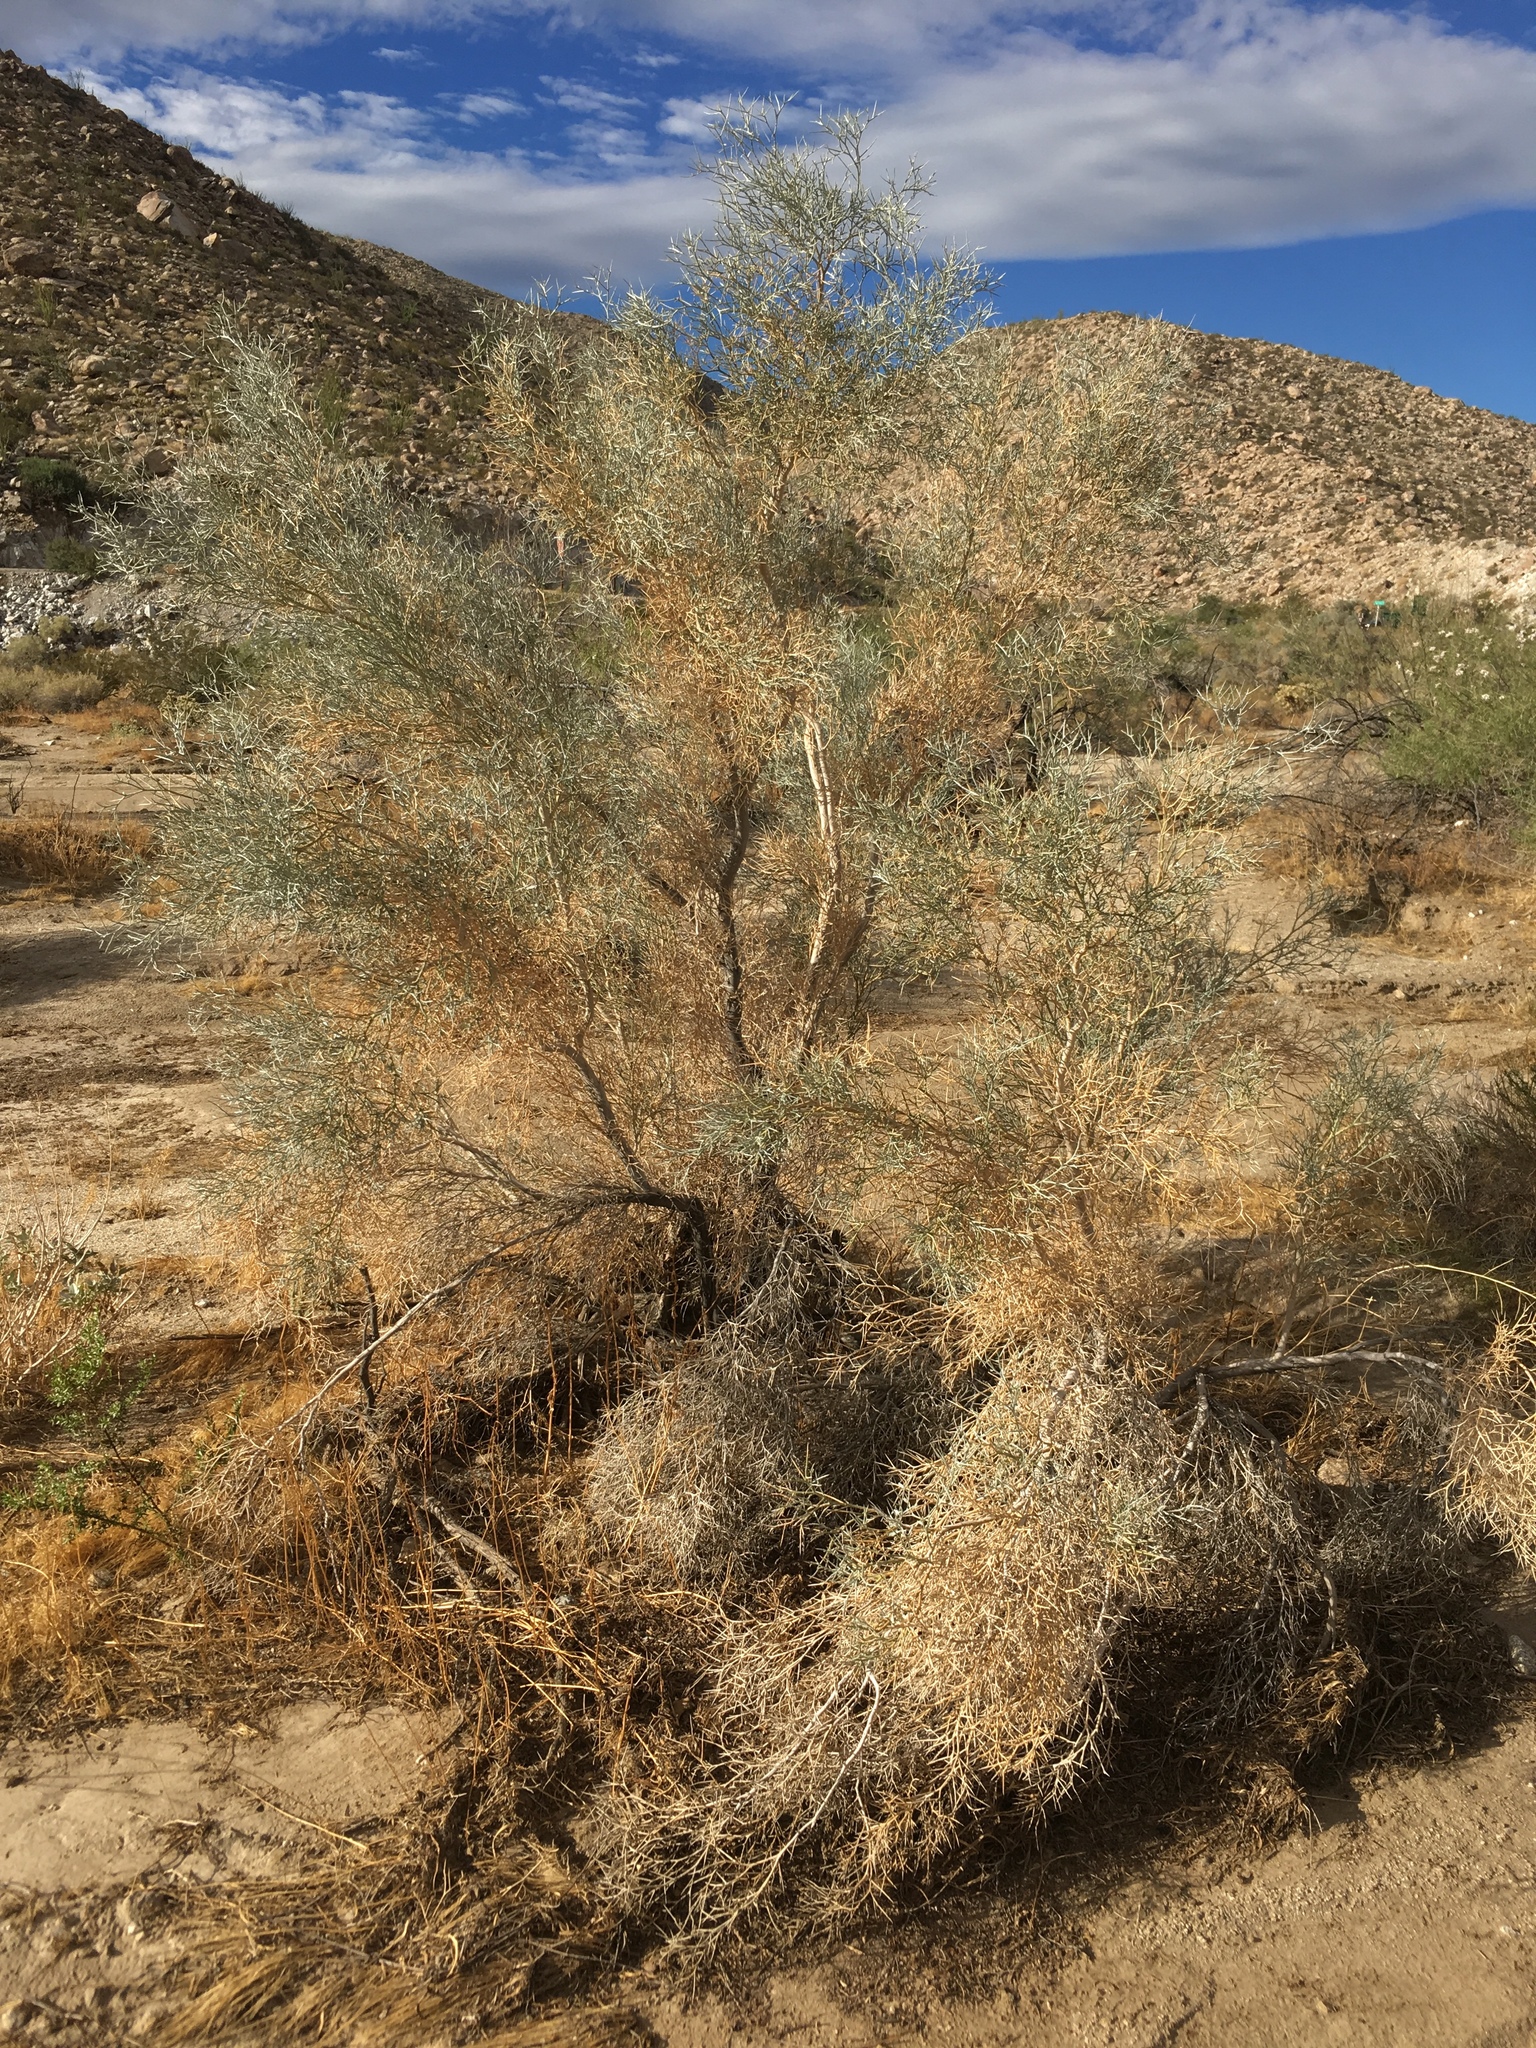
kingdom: Plantae
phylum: Tracheophyta
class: Magnoliopsida
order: Fabales
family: Fabaceae
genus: Psorothamnus
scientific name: Psorothamnus spinosus
